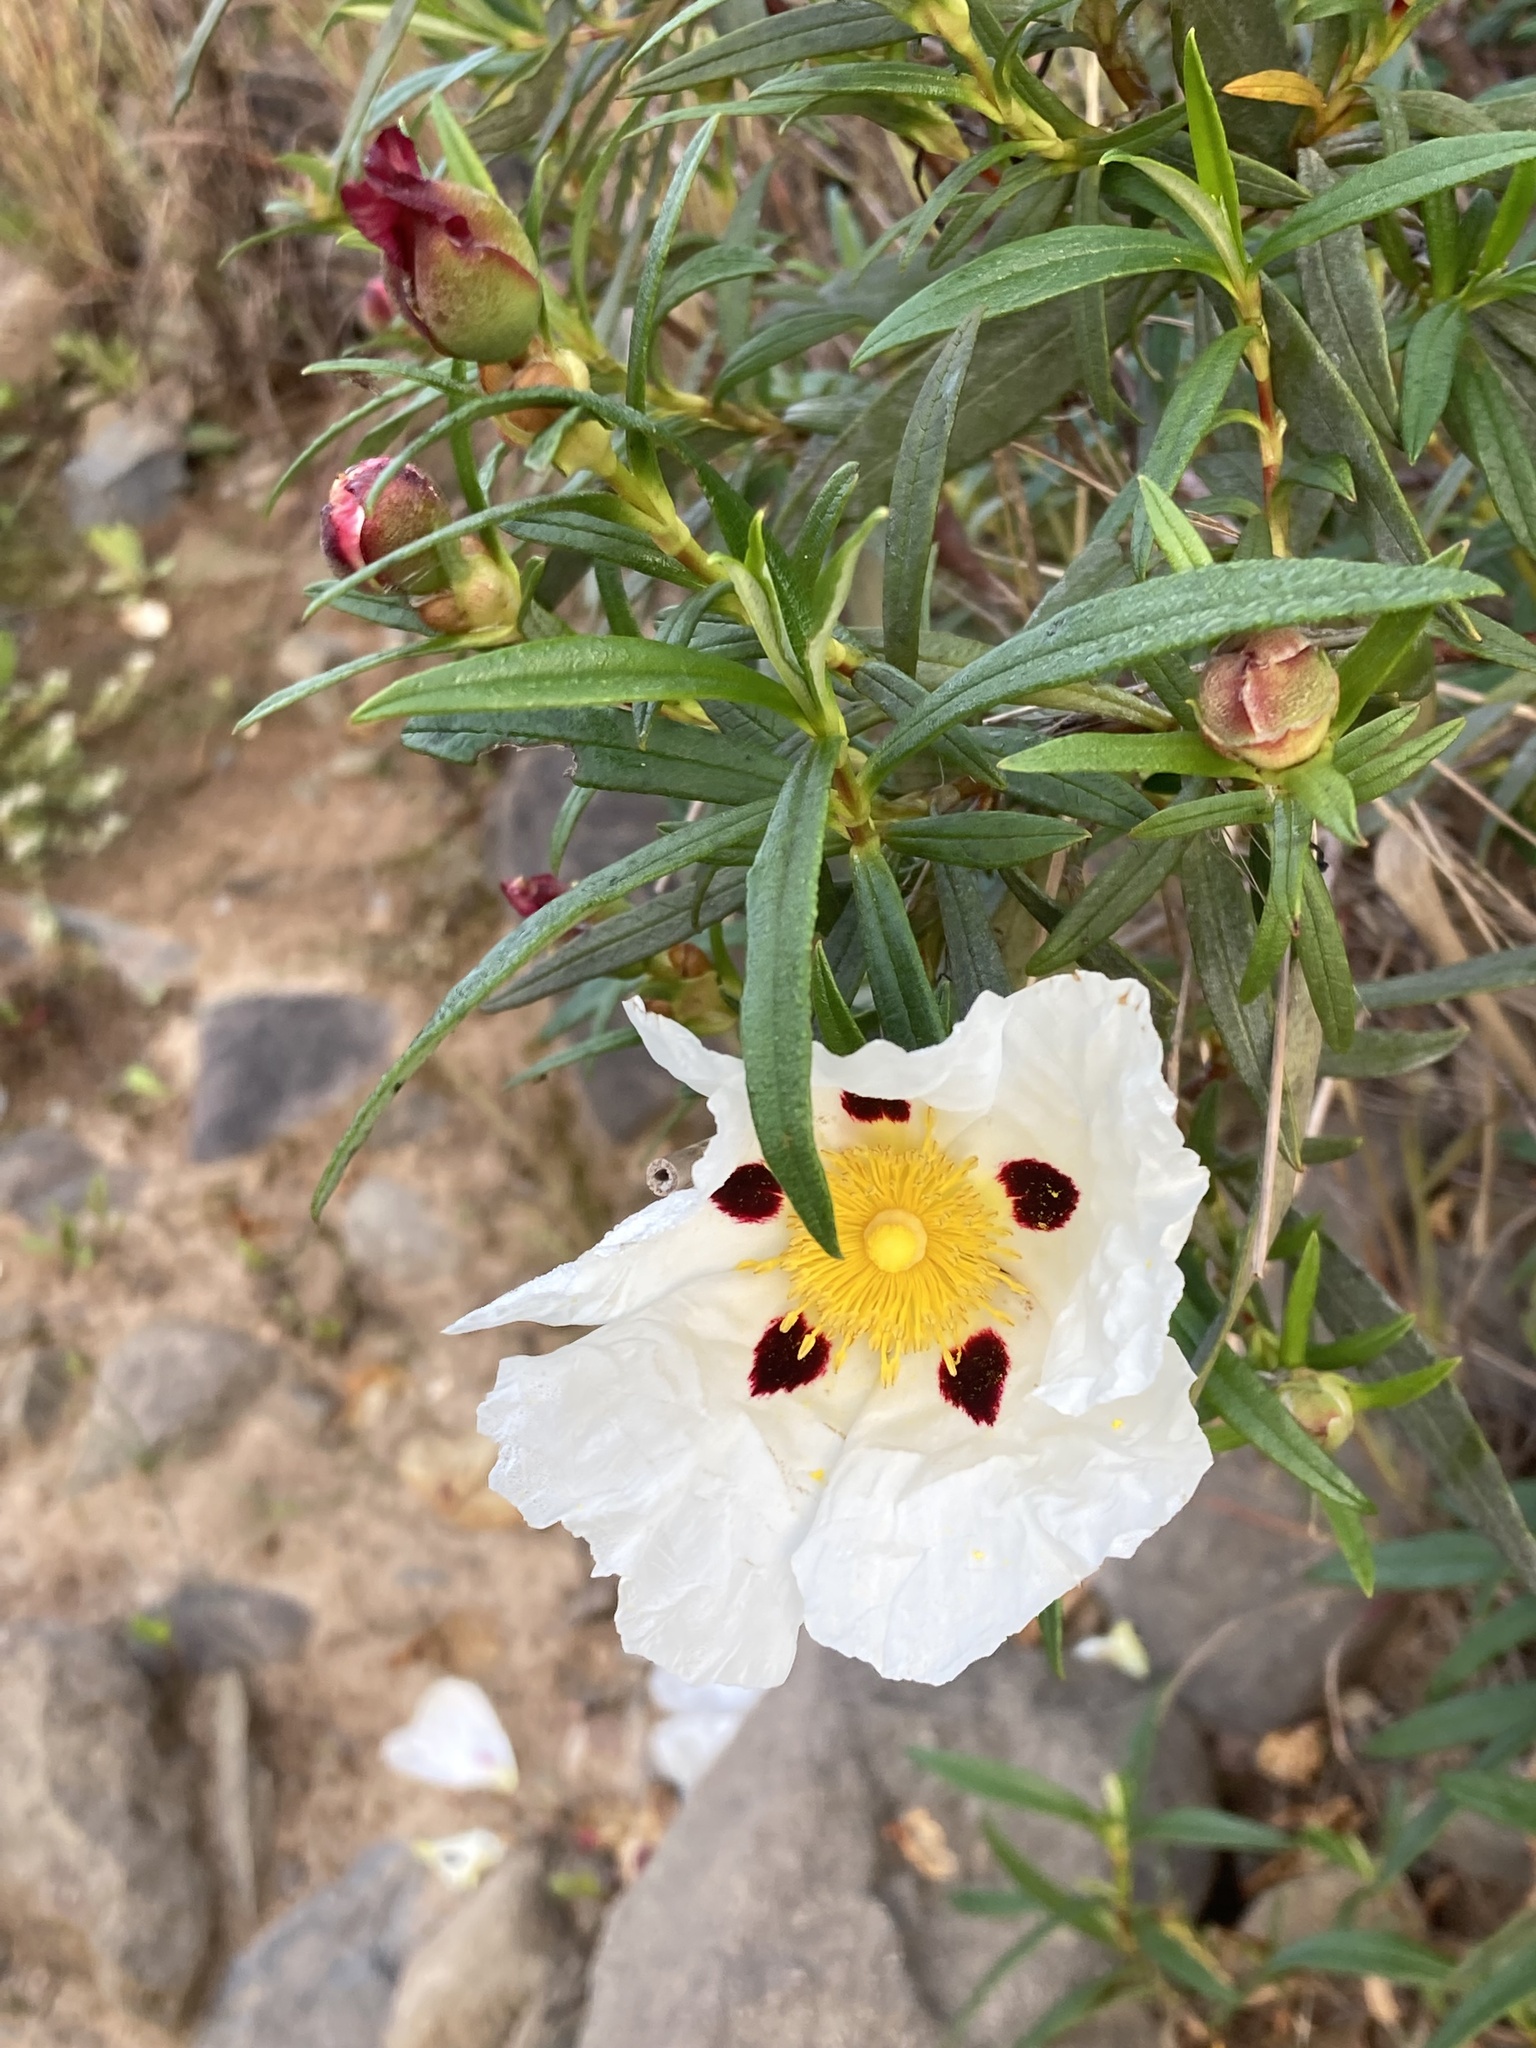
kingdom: Plantae
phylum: Tracheophyta
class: Magnoliopsida
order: Malvales
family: Cistaceae
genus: Cistus
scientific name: Cistus ladanifer
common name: Common gum cistus
